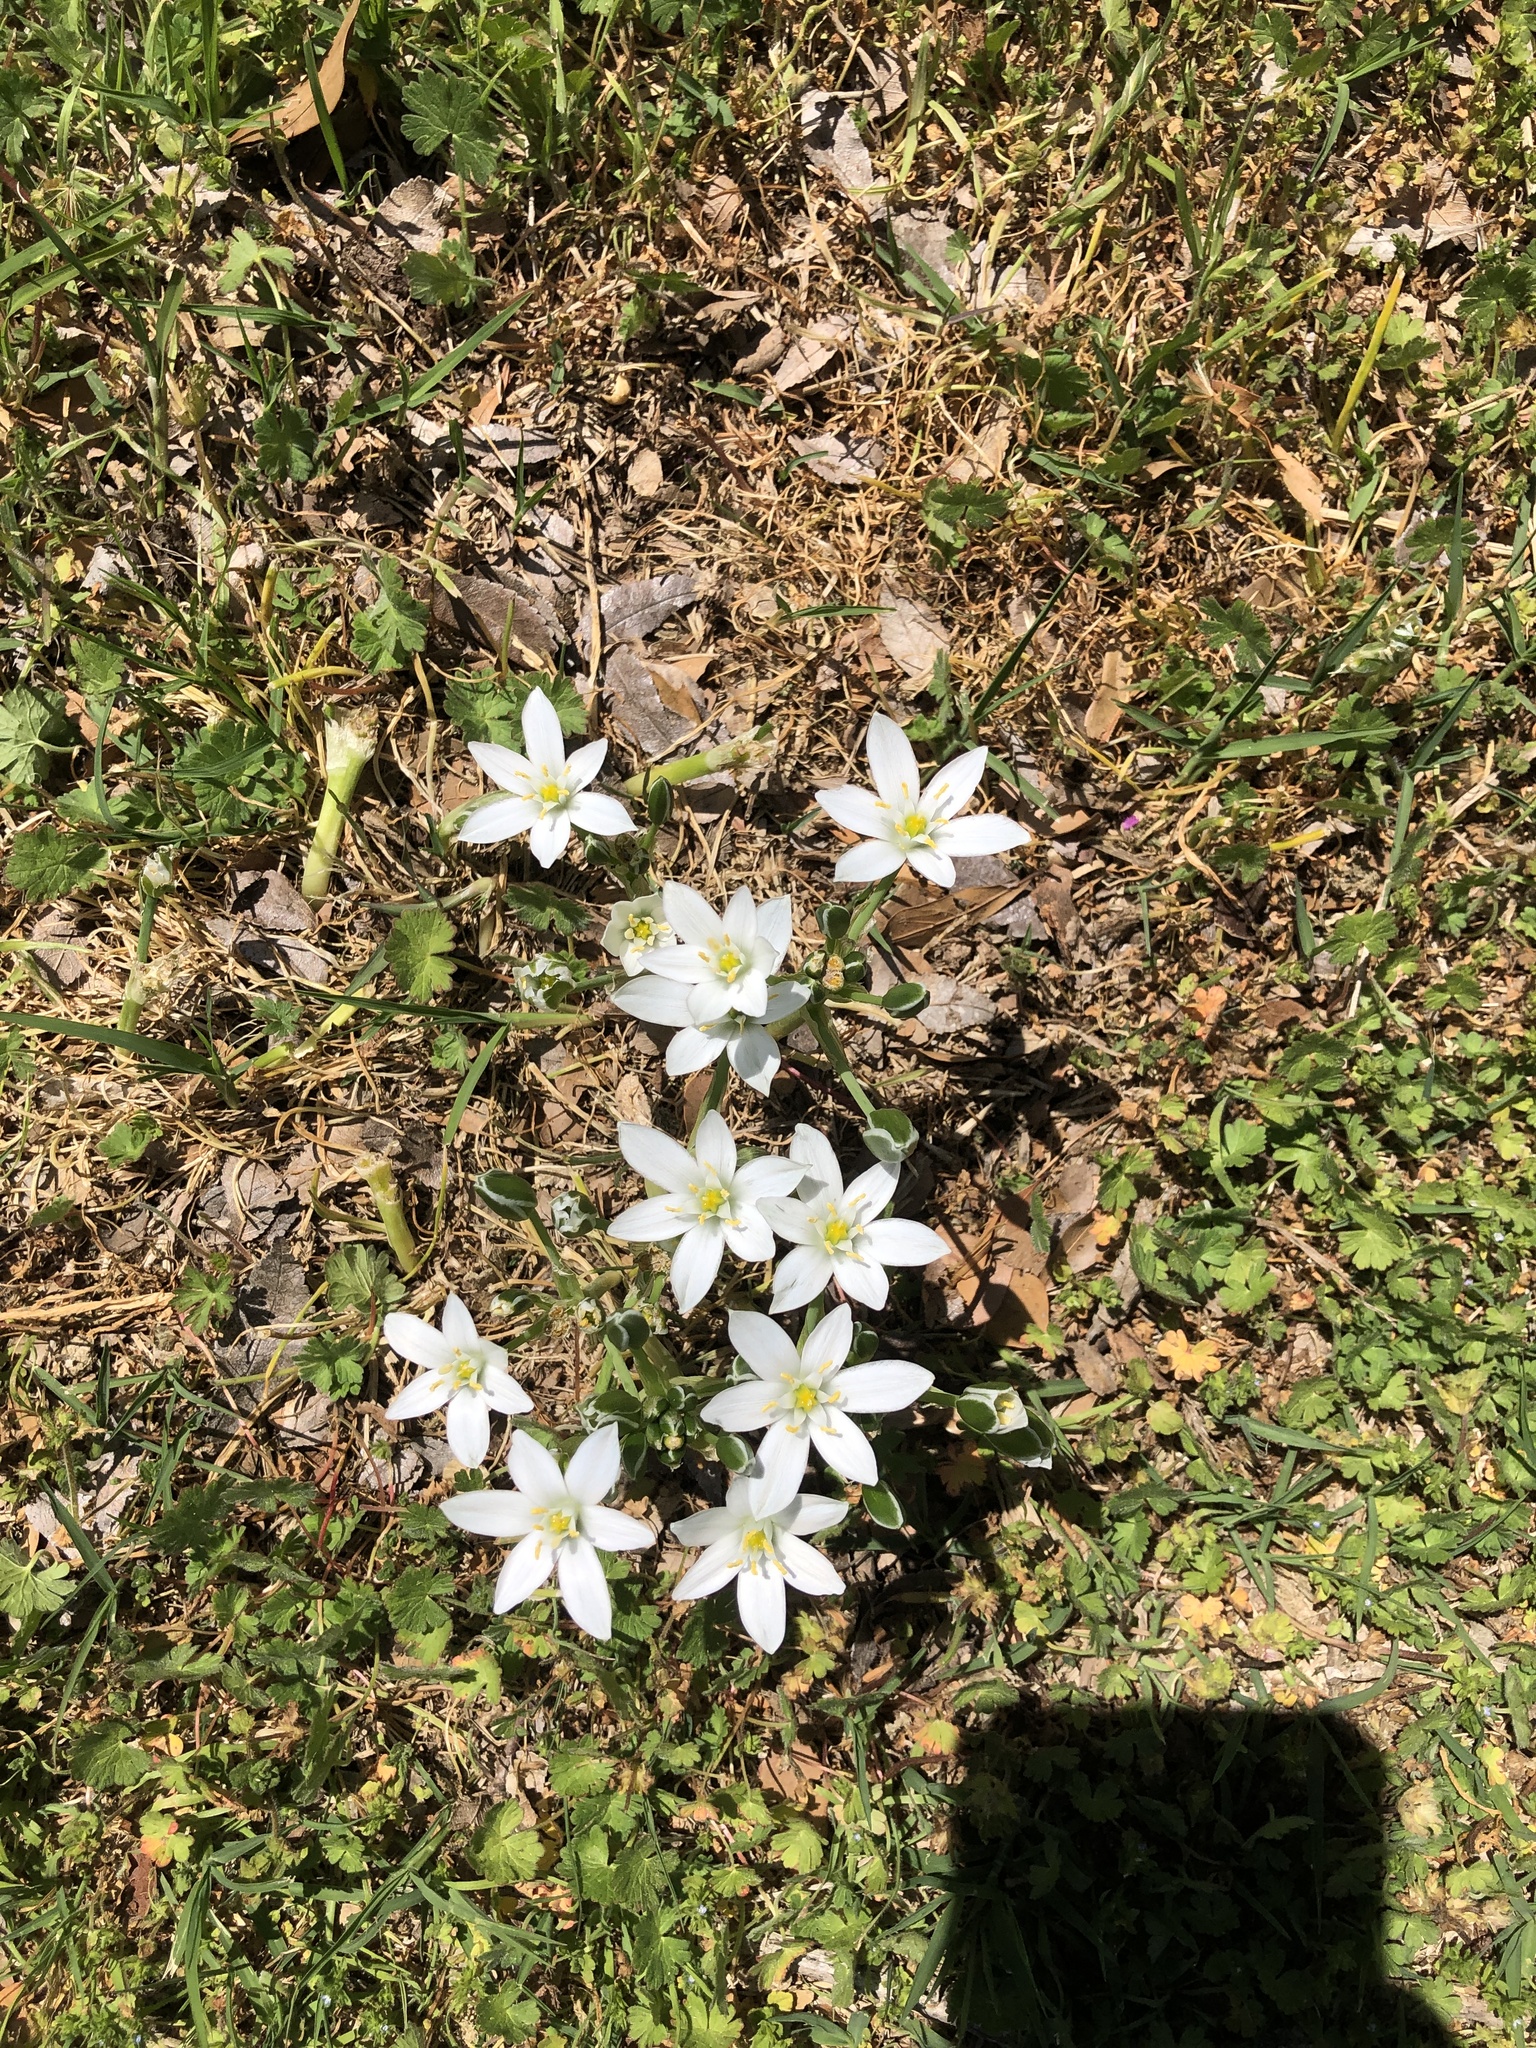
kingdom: Plantae
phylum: Tracheophyta
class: Liliopsida
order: Asparagales
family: Asparagaceae
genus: Ornithogalum
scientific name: Ornithogalum umbellatum
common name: Garden star-of-bethlehem
